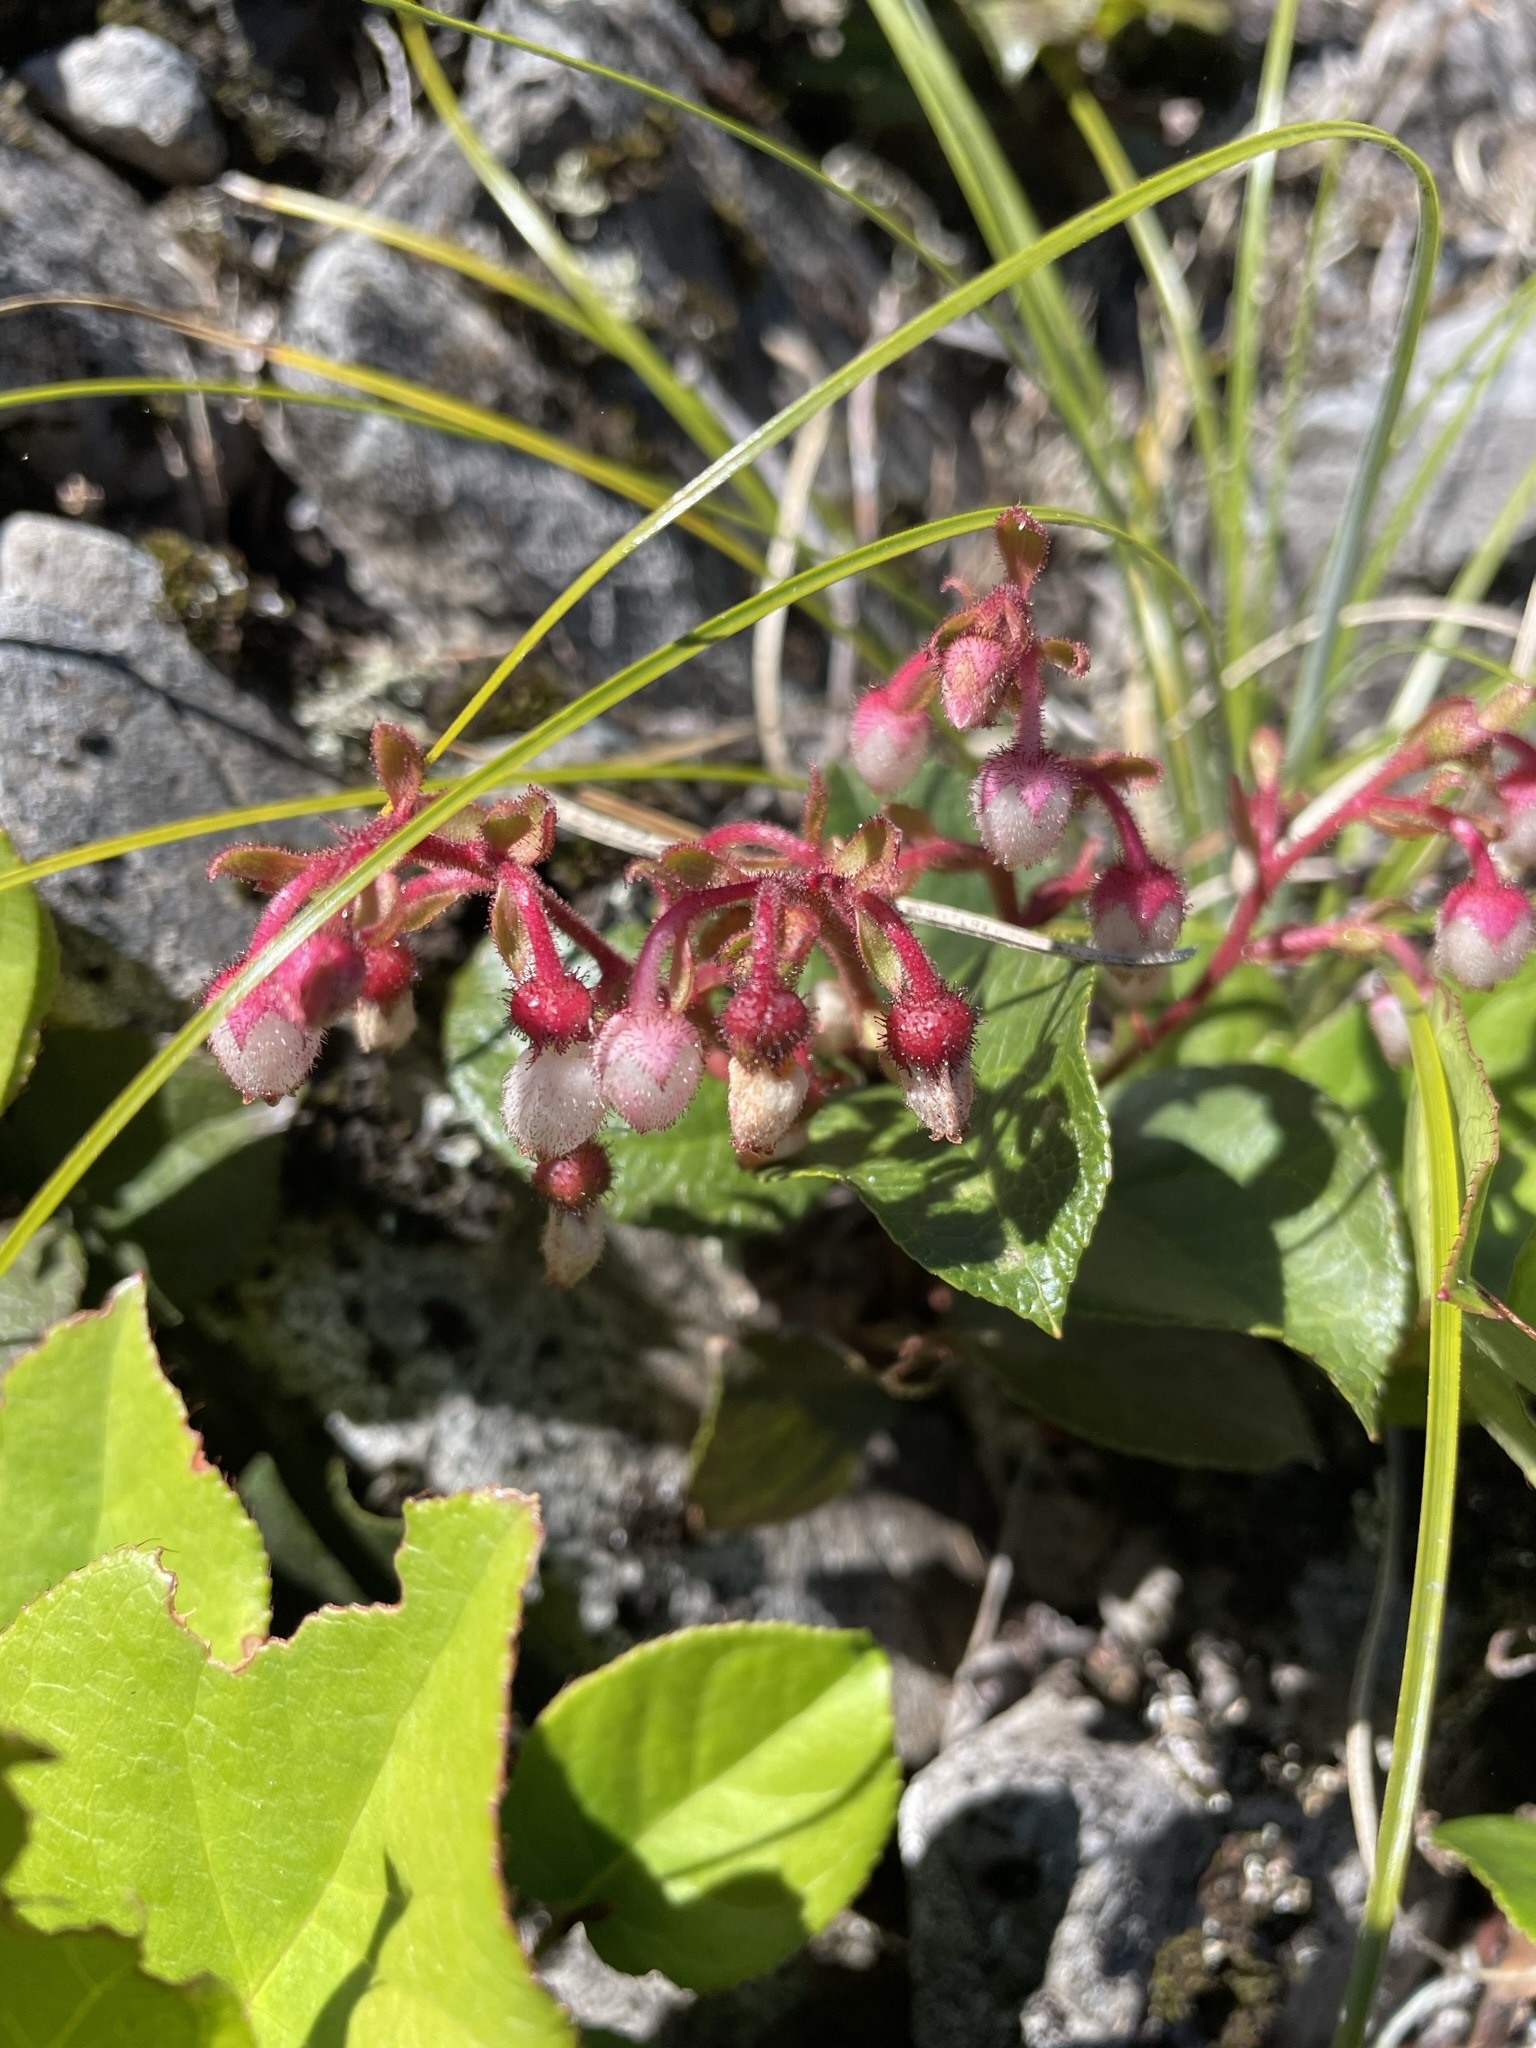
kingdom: Plantae
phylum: Tracheophyta
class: Magnoliopsida
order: Ericales
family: Ericaceae
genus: Gaultheria
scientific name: Gaultheria shallon
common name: Shallon
